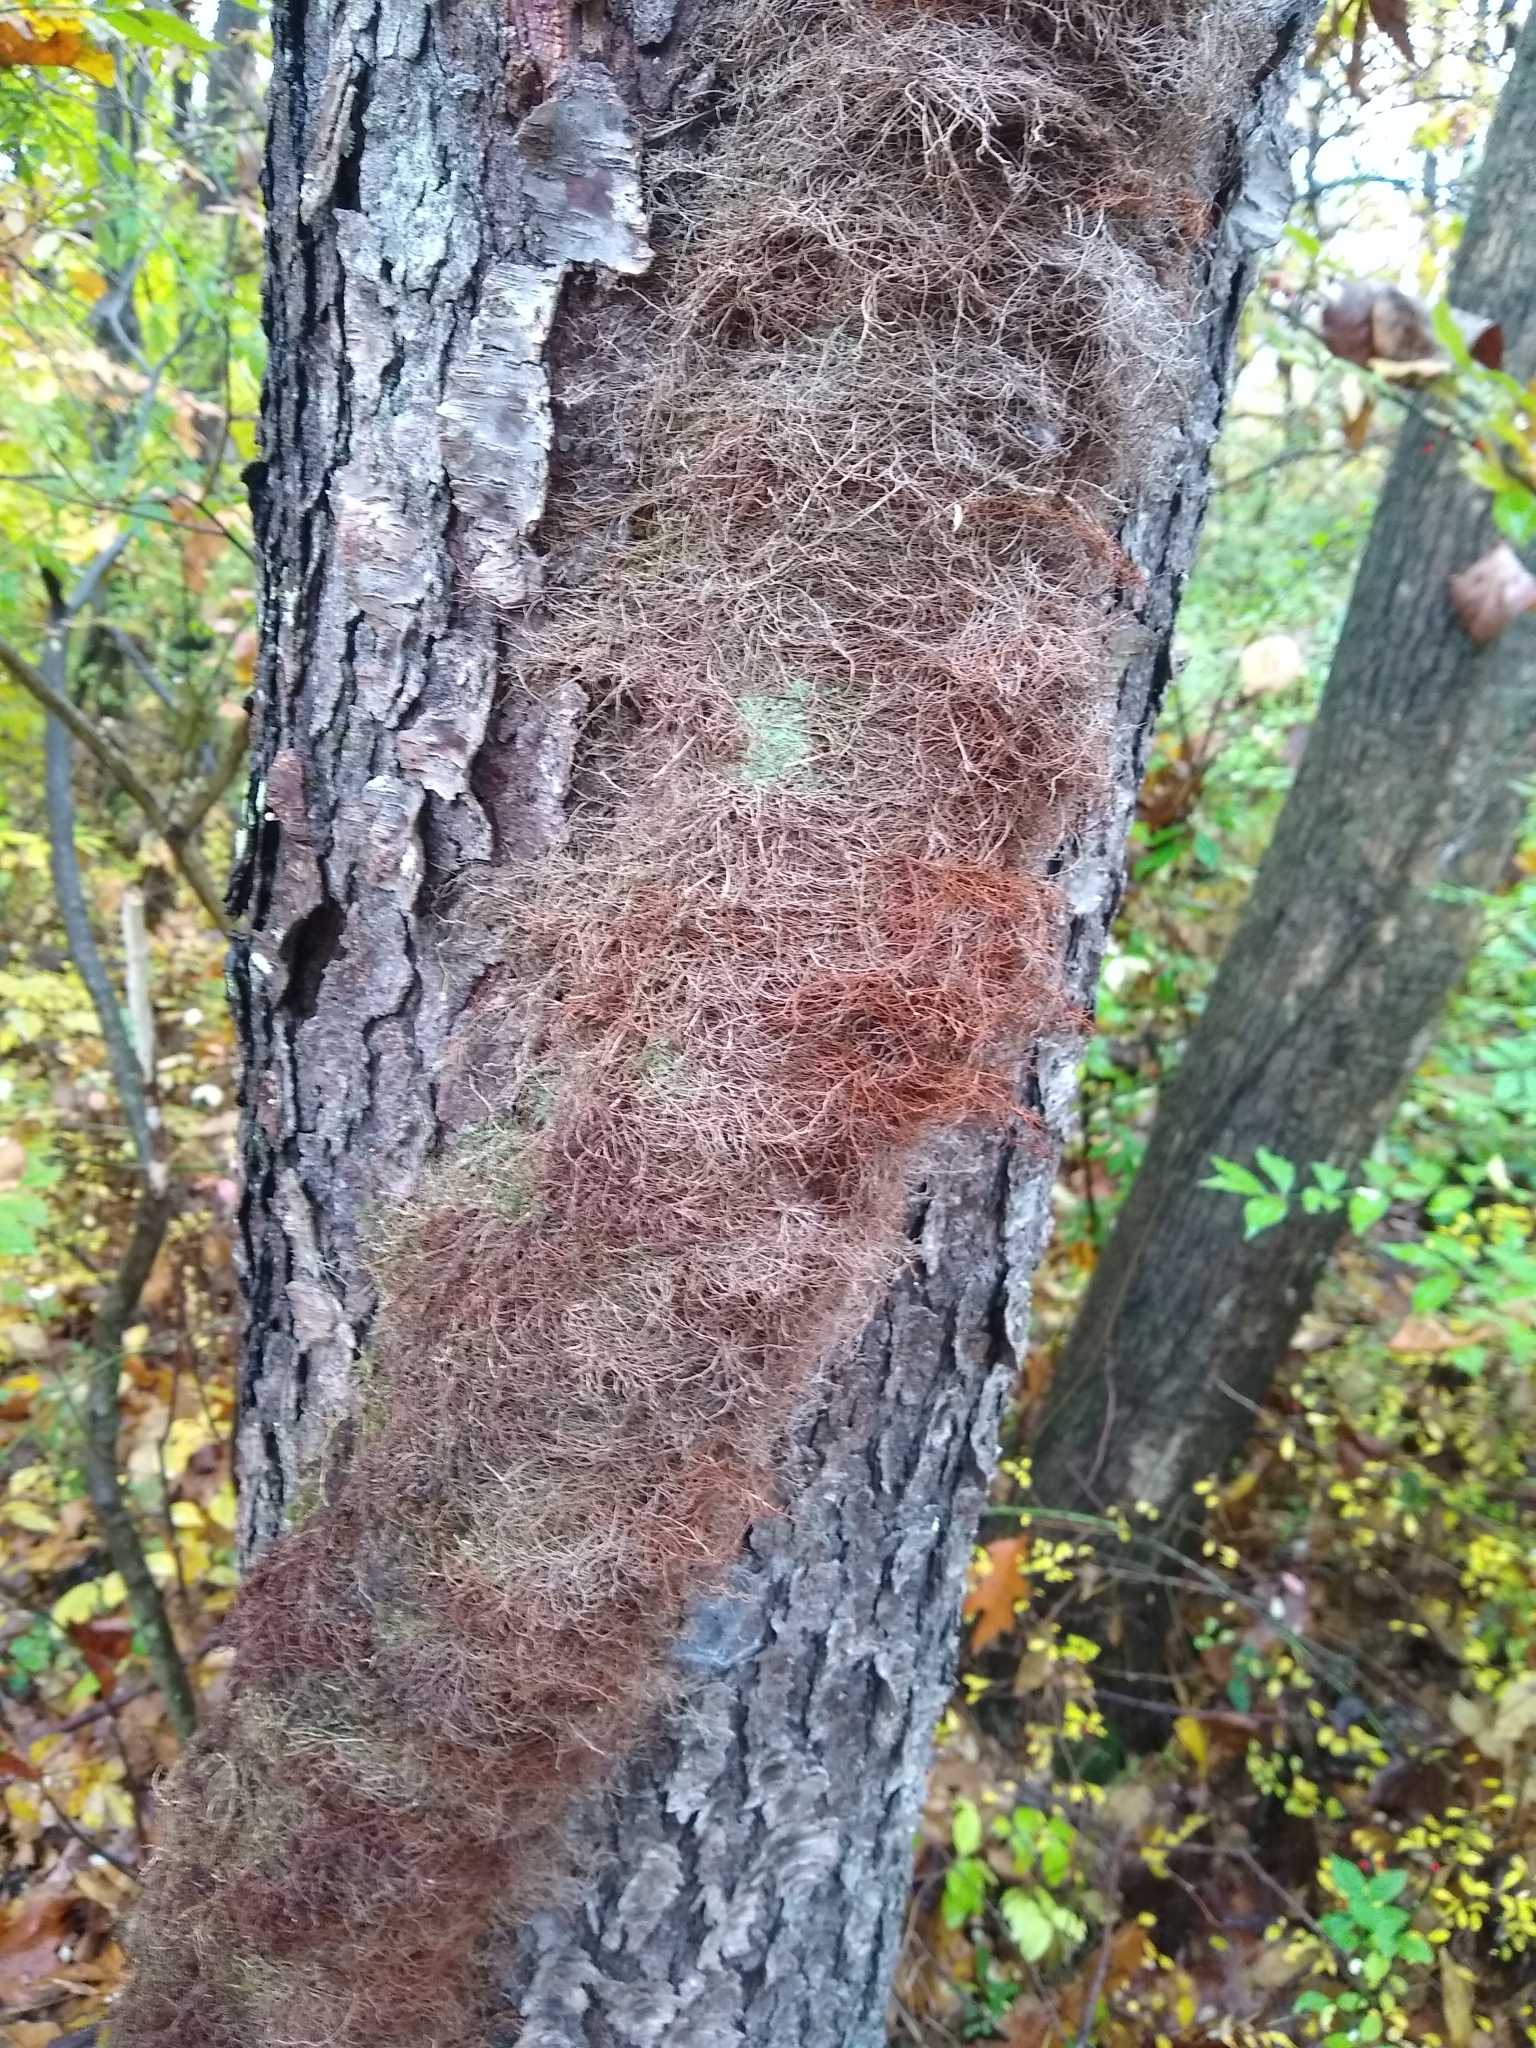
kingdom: Plantae
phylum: Tracheophyta
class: Magnoliopsida
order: Sapindales
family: Anacardiaceae
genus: Toxicodendron
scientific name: Toxicodendron radicans
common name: Poison ivy
